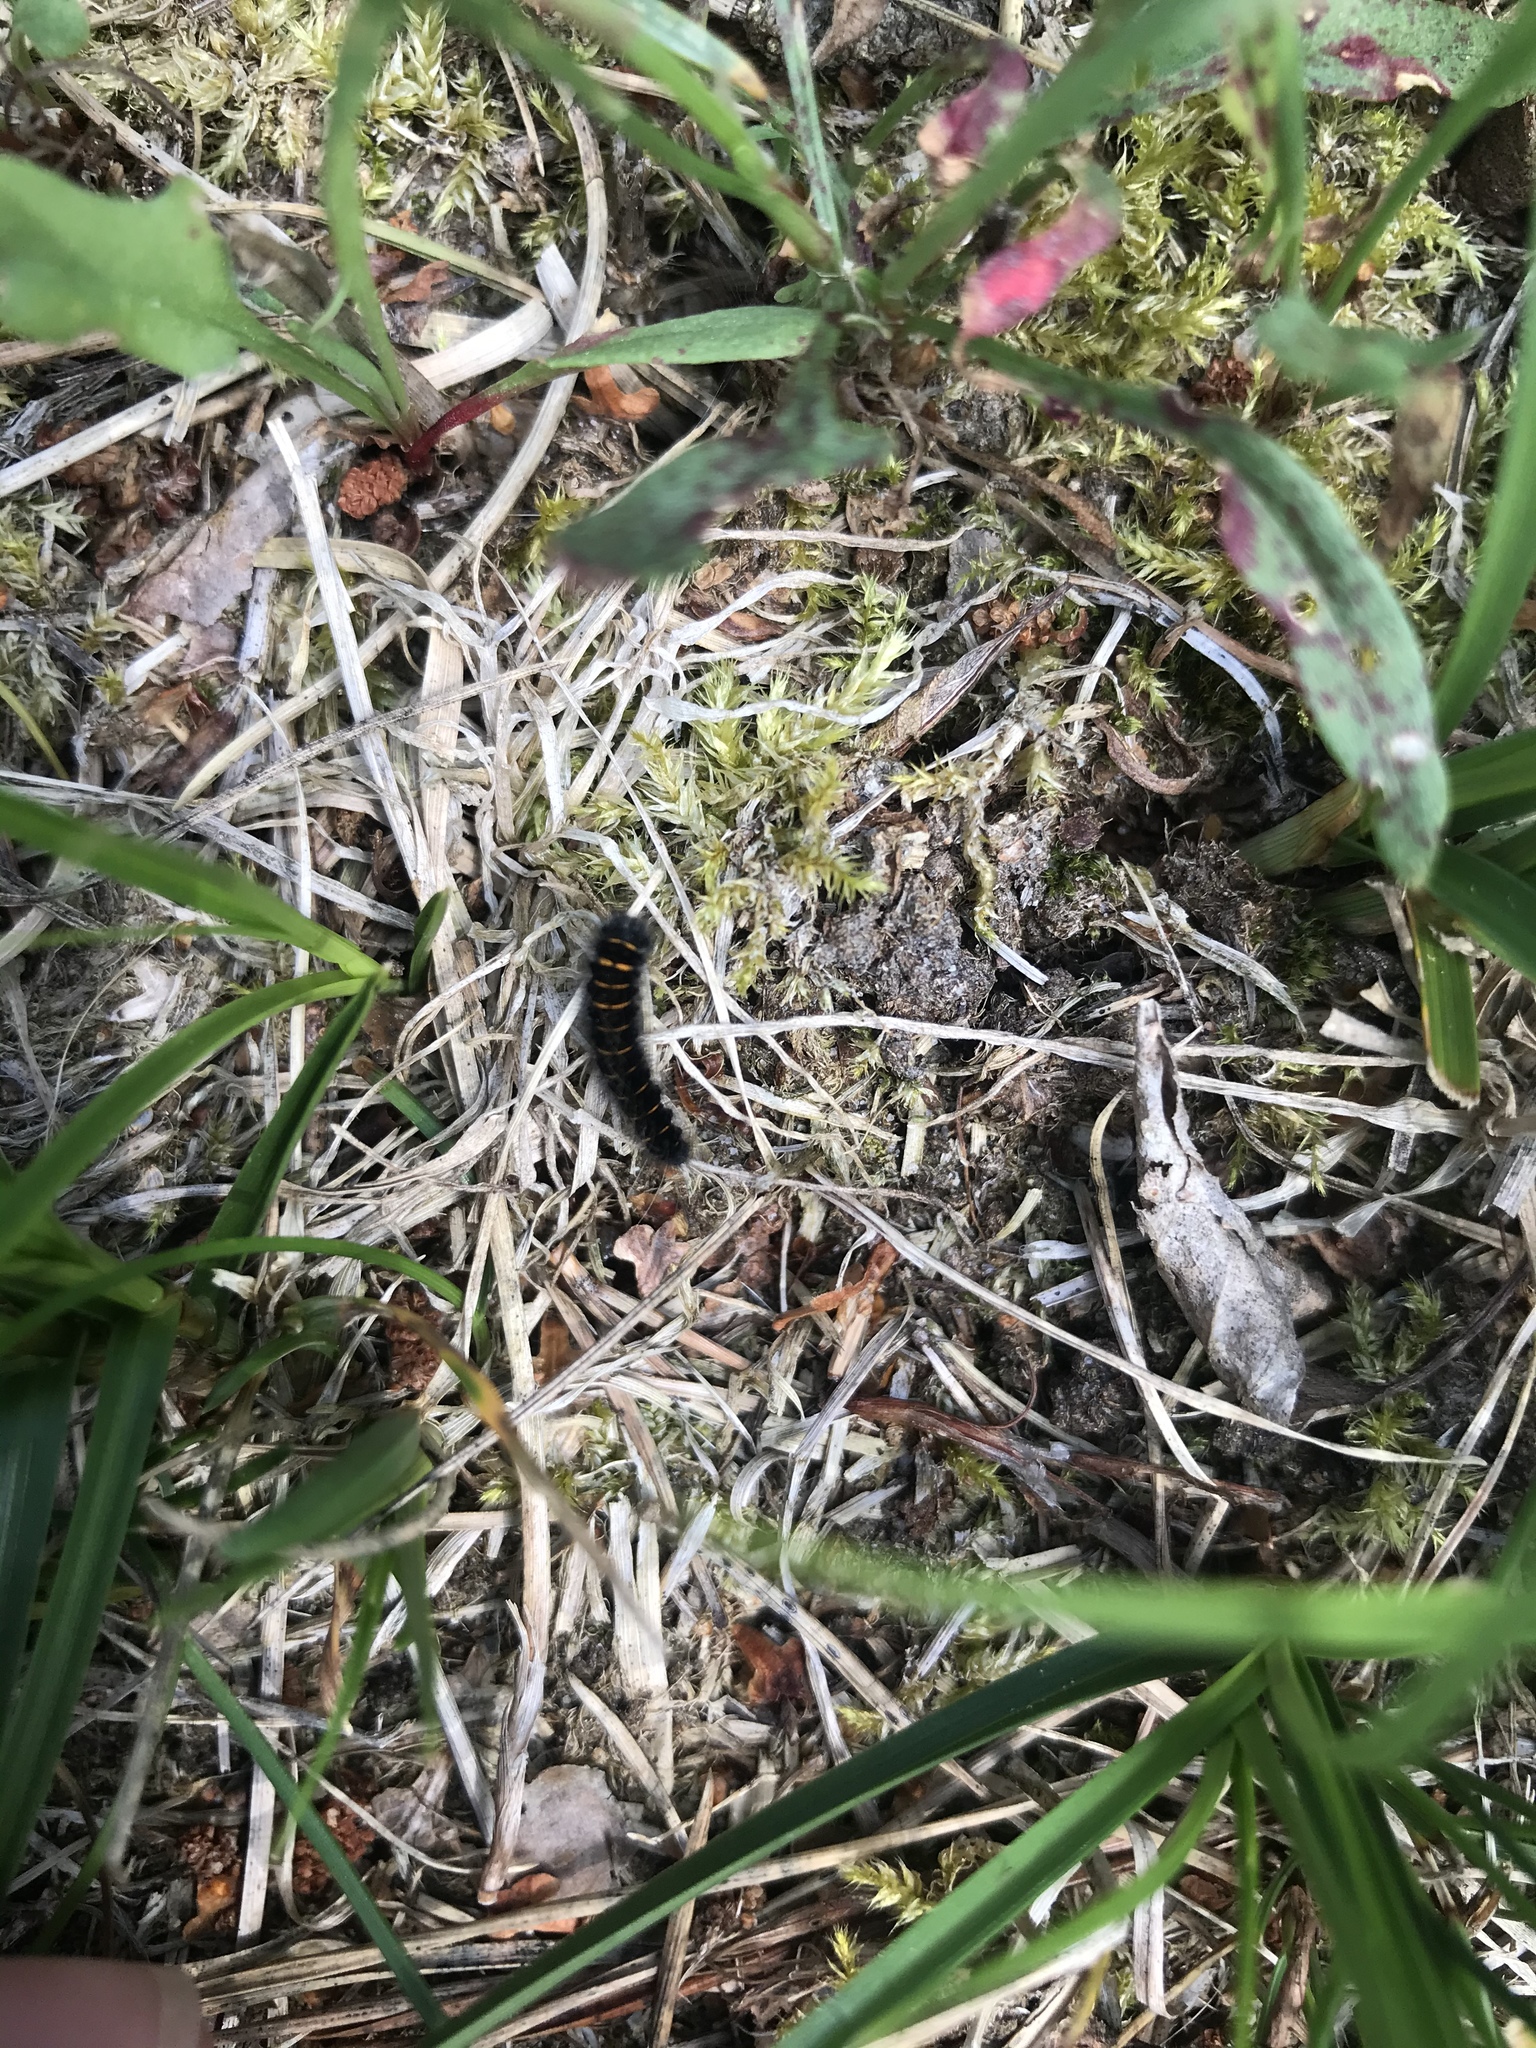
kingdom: Animalia
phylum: Arthropoda
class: Insecta
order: Lepidoptera
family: Lasiocampidae
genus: Macrothylacia
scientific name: Macrothylacia rubi
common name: Fox moth
